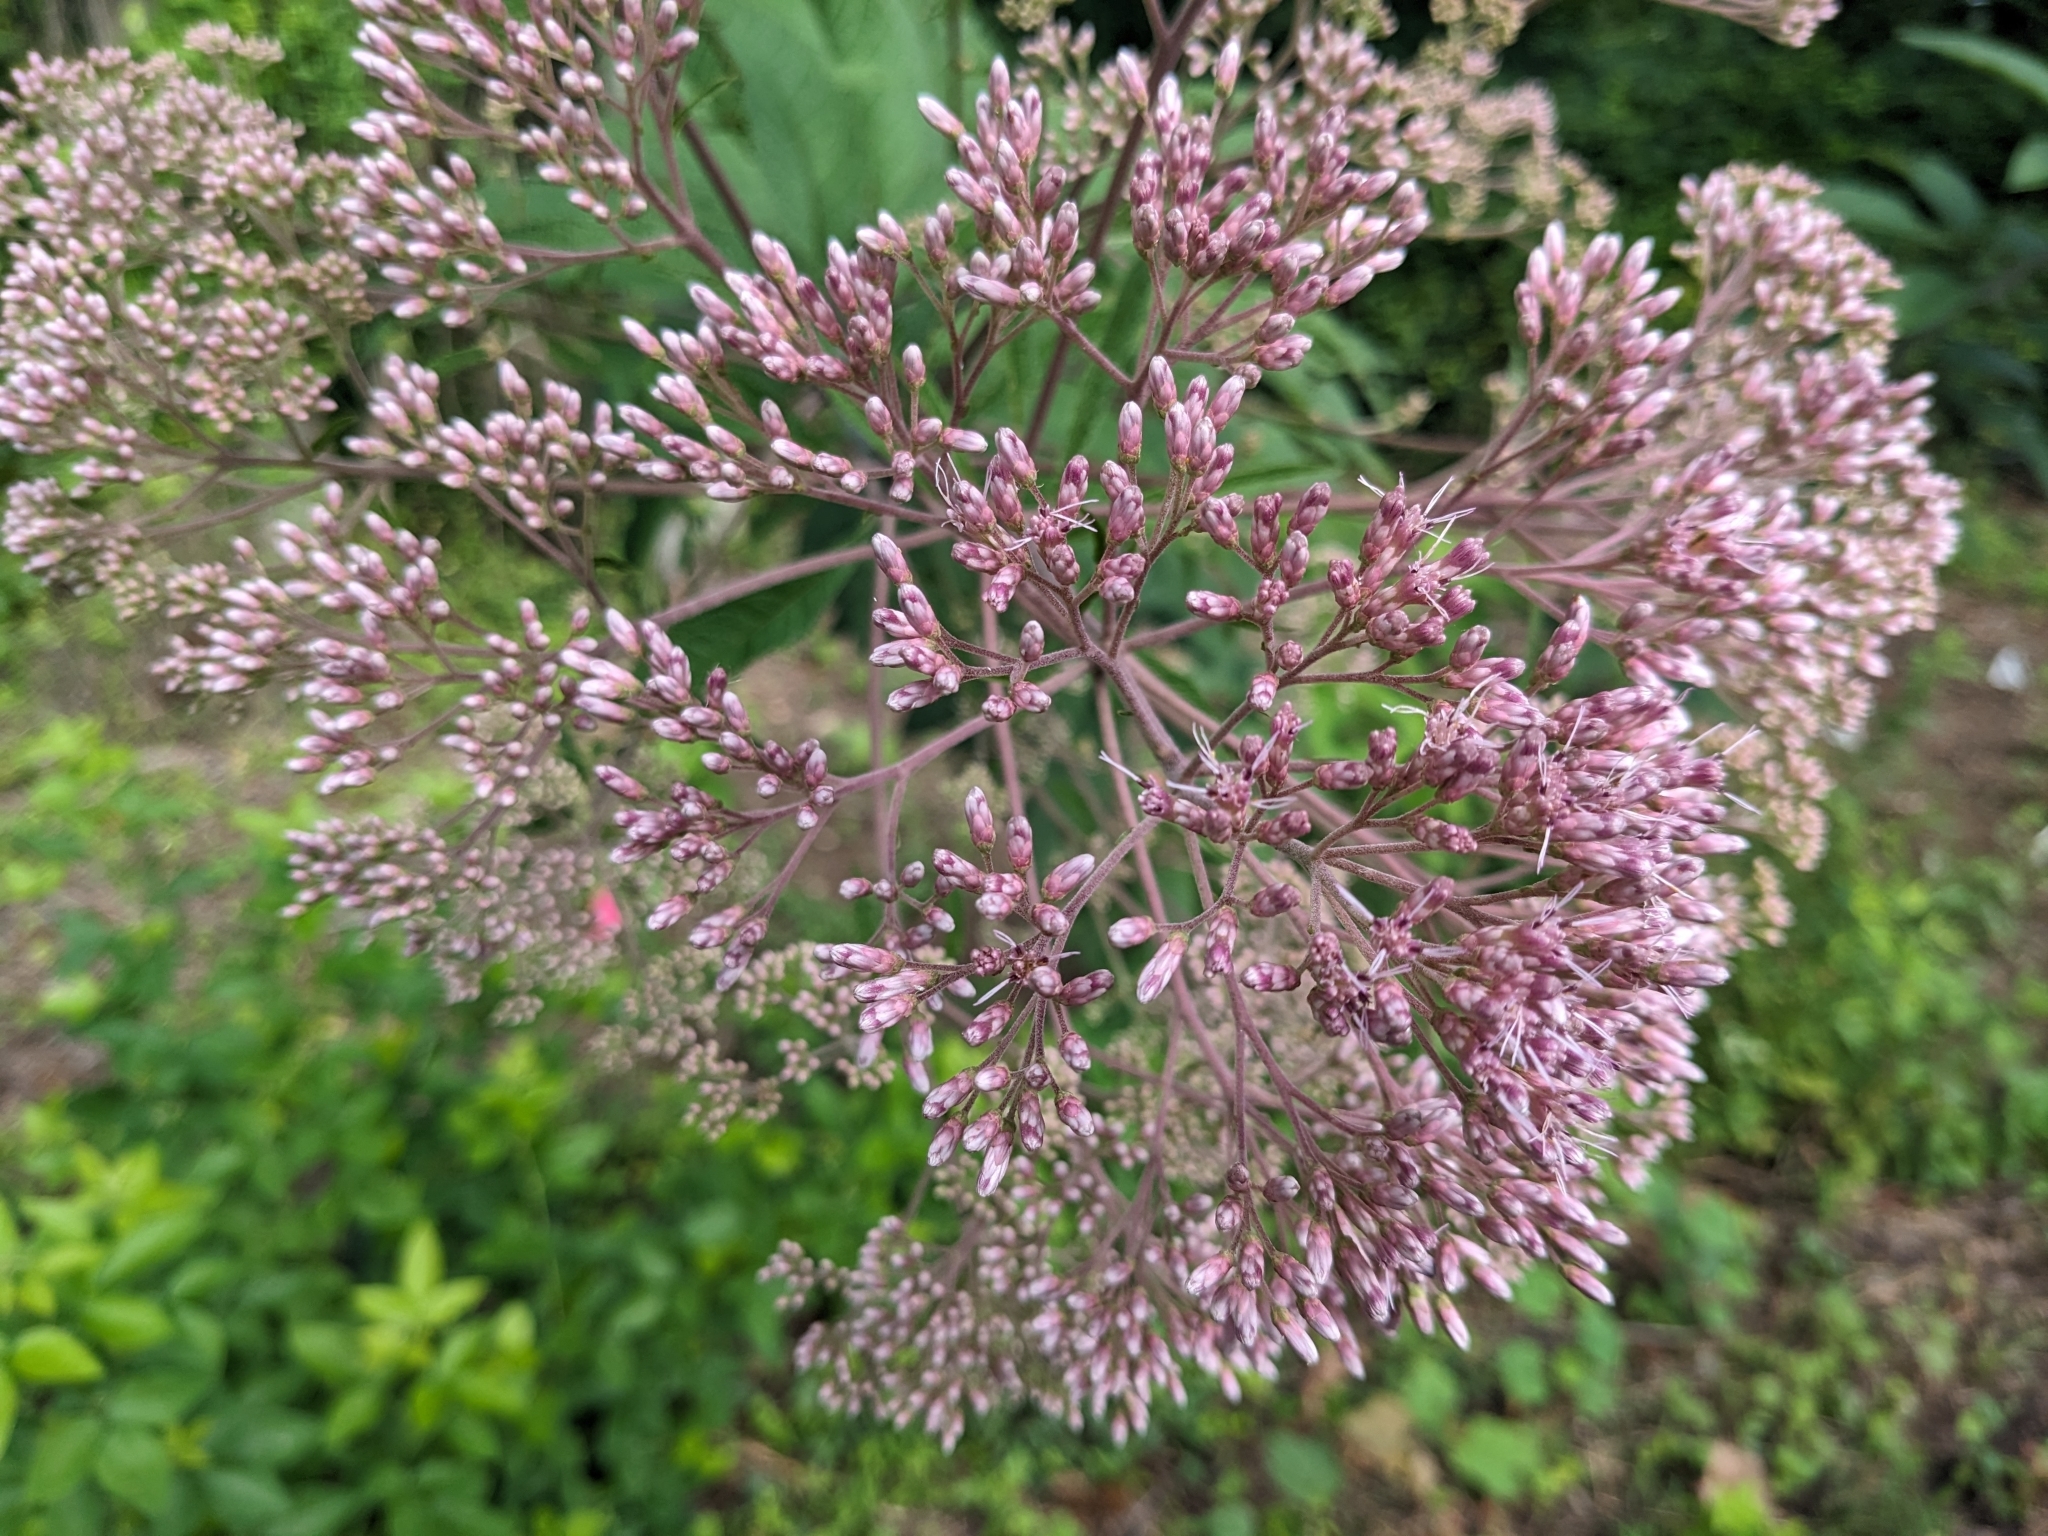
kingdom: Plantae
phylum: Tracheophyta
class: Magnoliopsida
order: Asterales
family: Asteraceae
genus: Eutrochium
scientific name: Eutrochium fistulosum
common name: Trumpetweed
